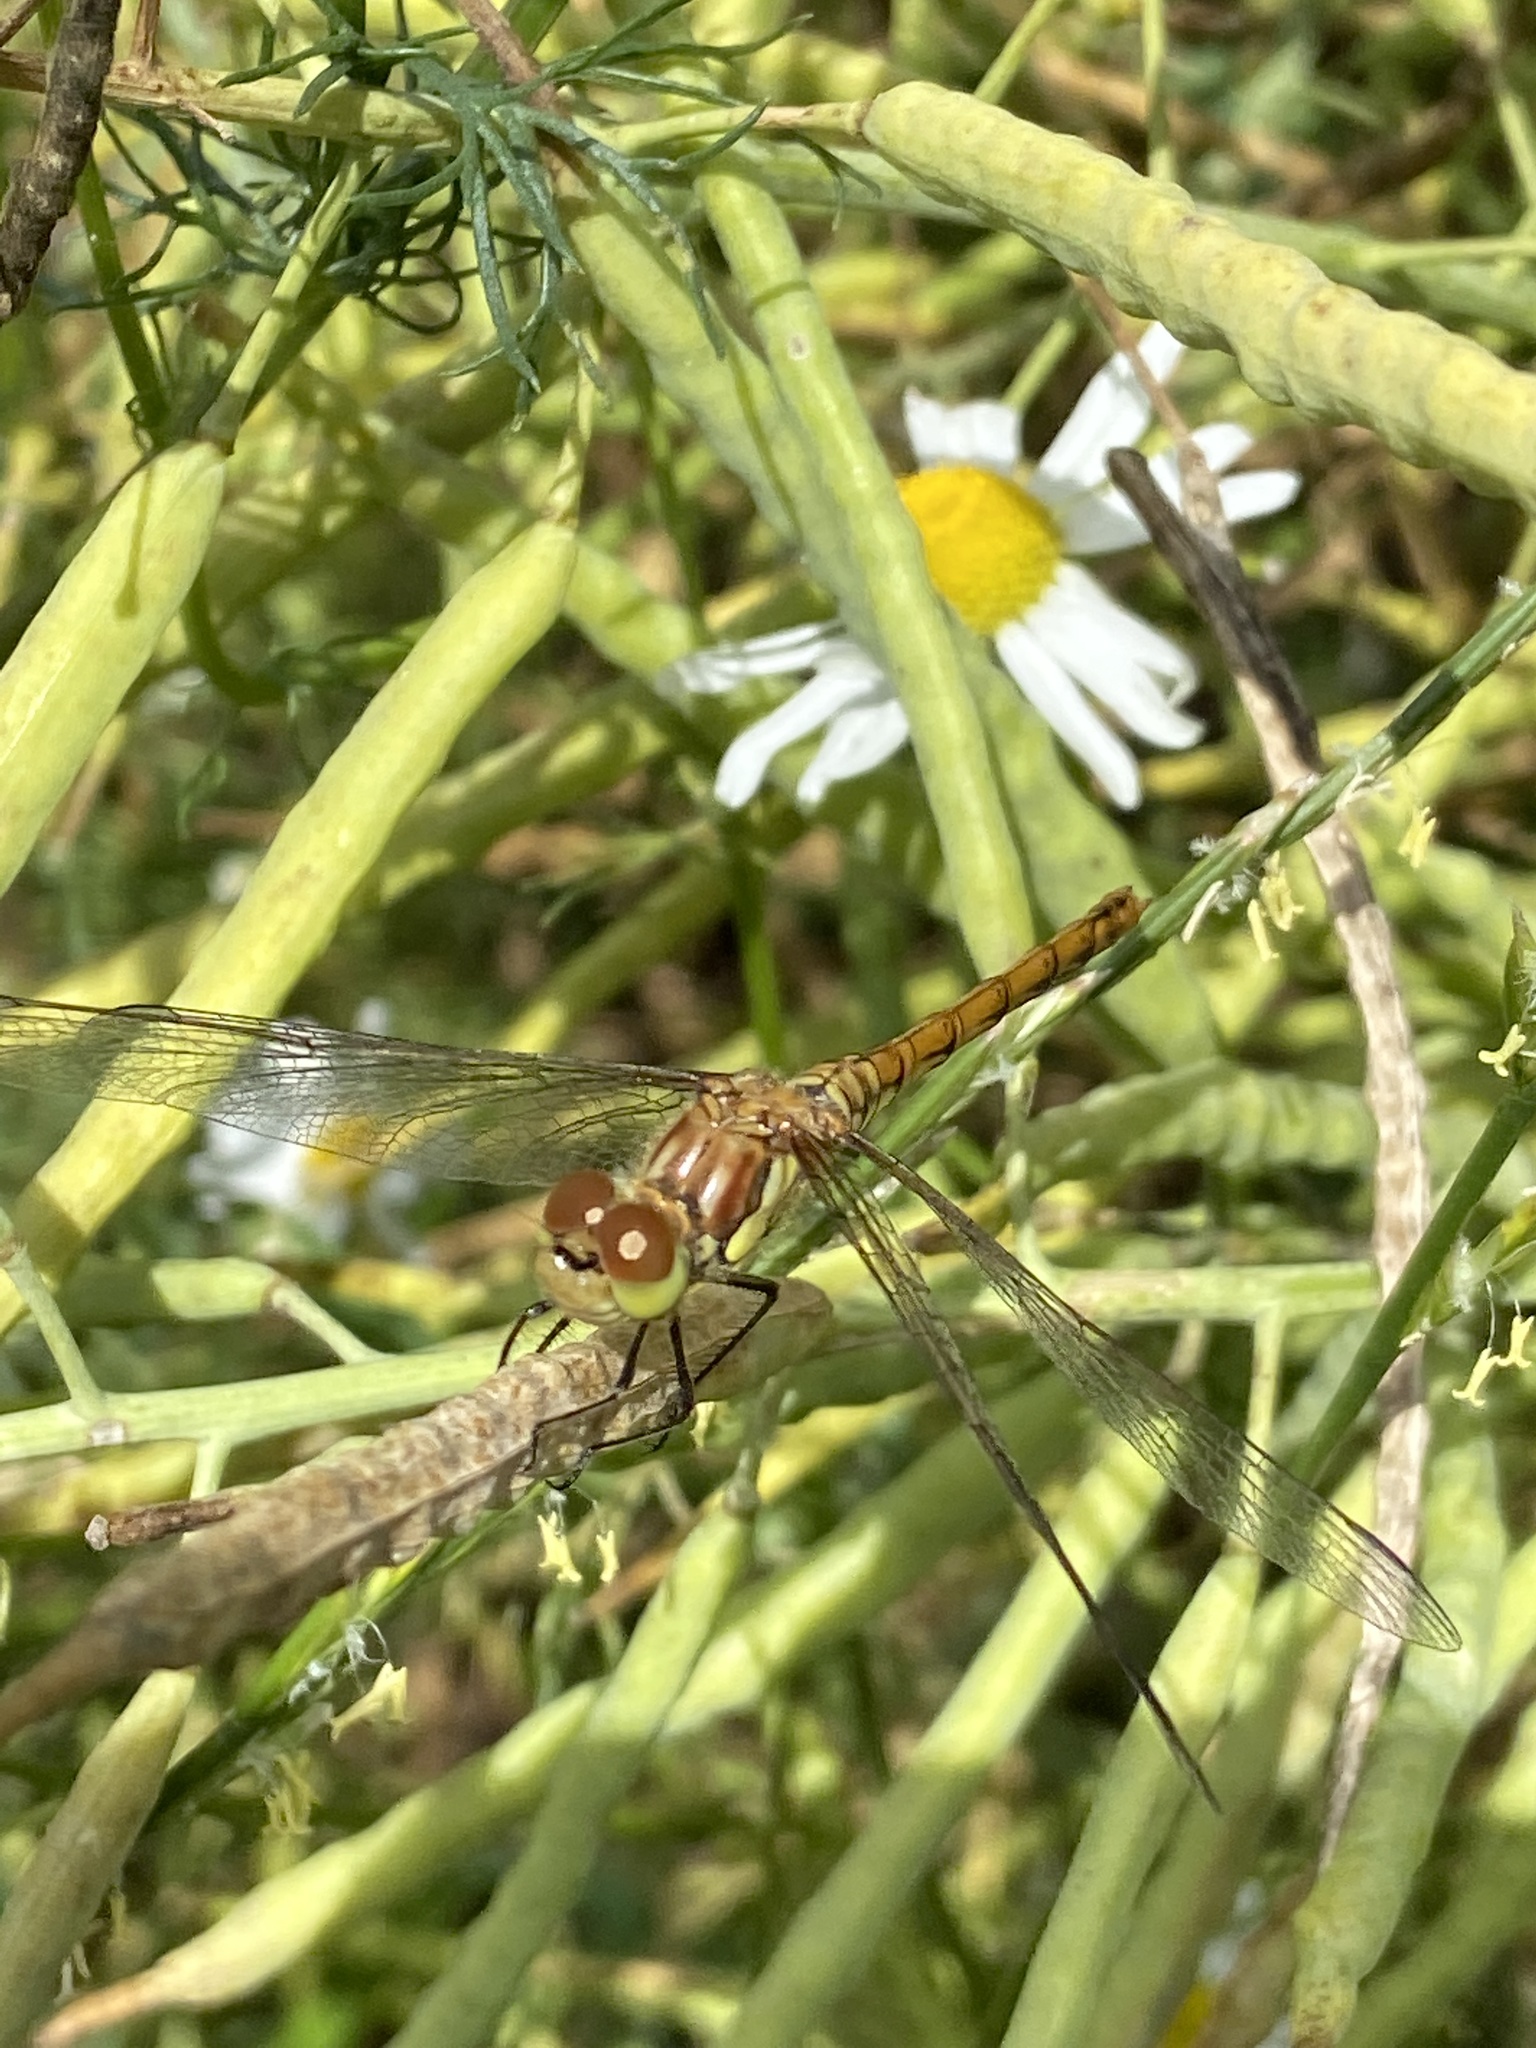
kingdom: Animalia
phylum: Arthropoda
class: Insecta
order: Odonata
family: Libellulidae
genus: Sympetrum
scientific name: Sympetrum striolatum
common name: Common darter
